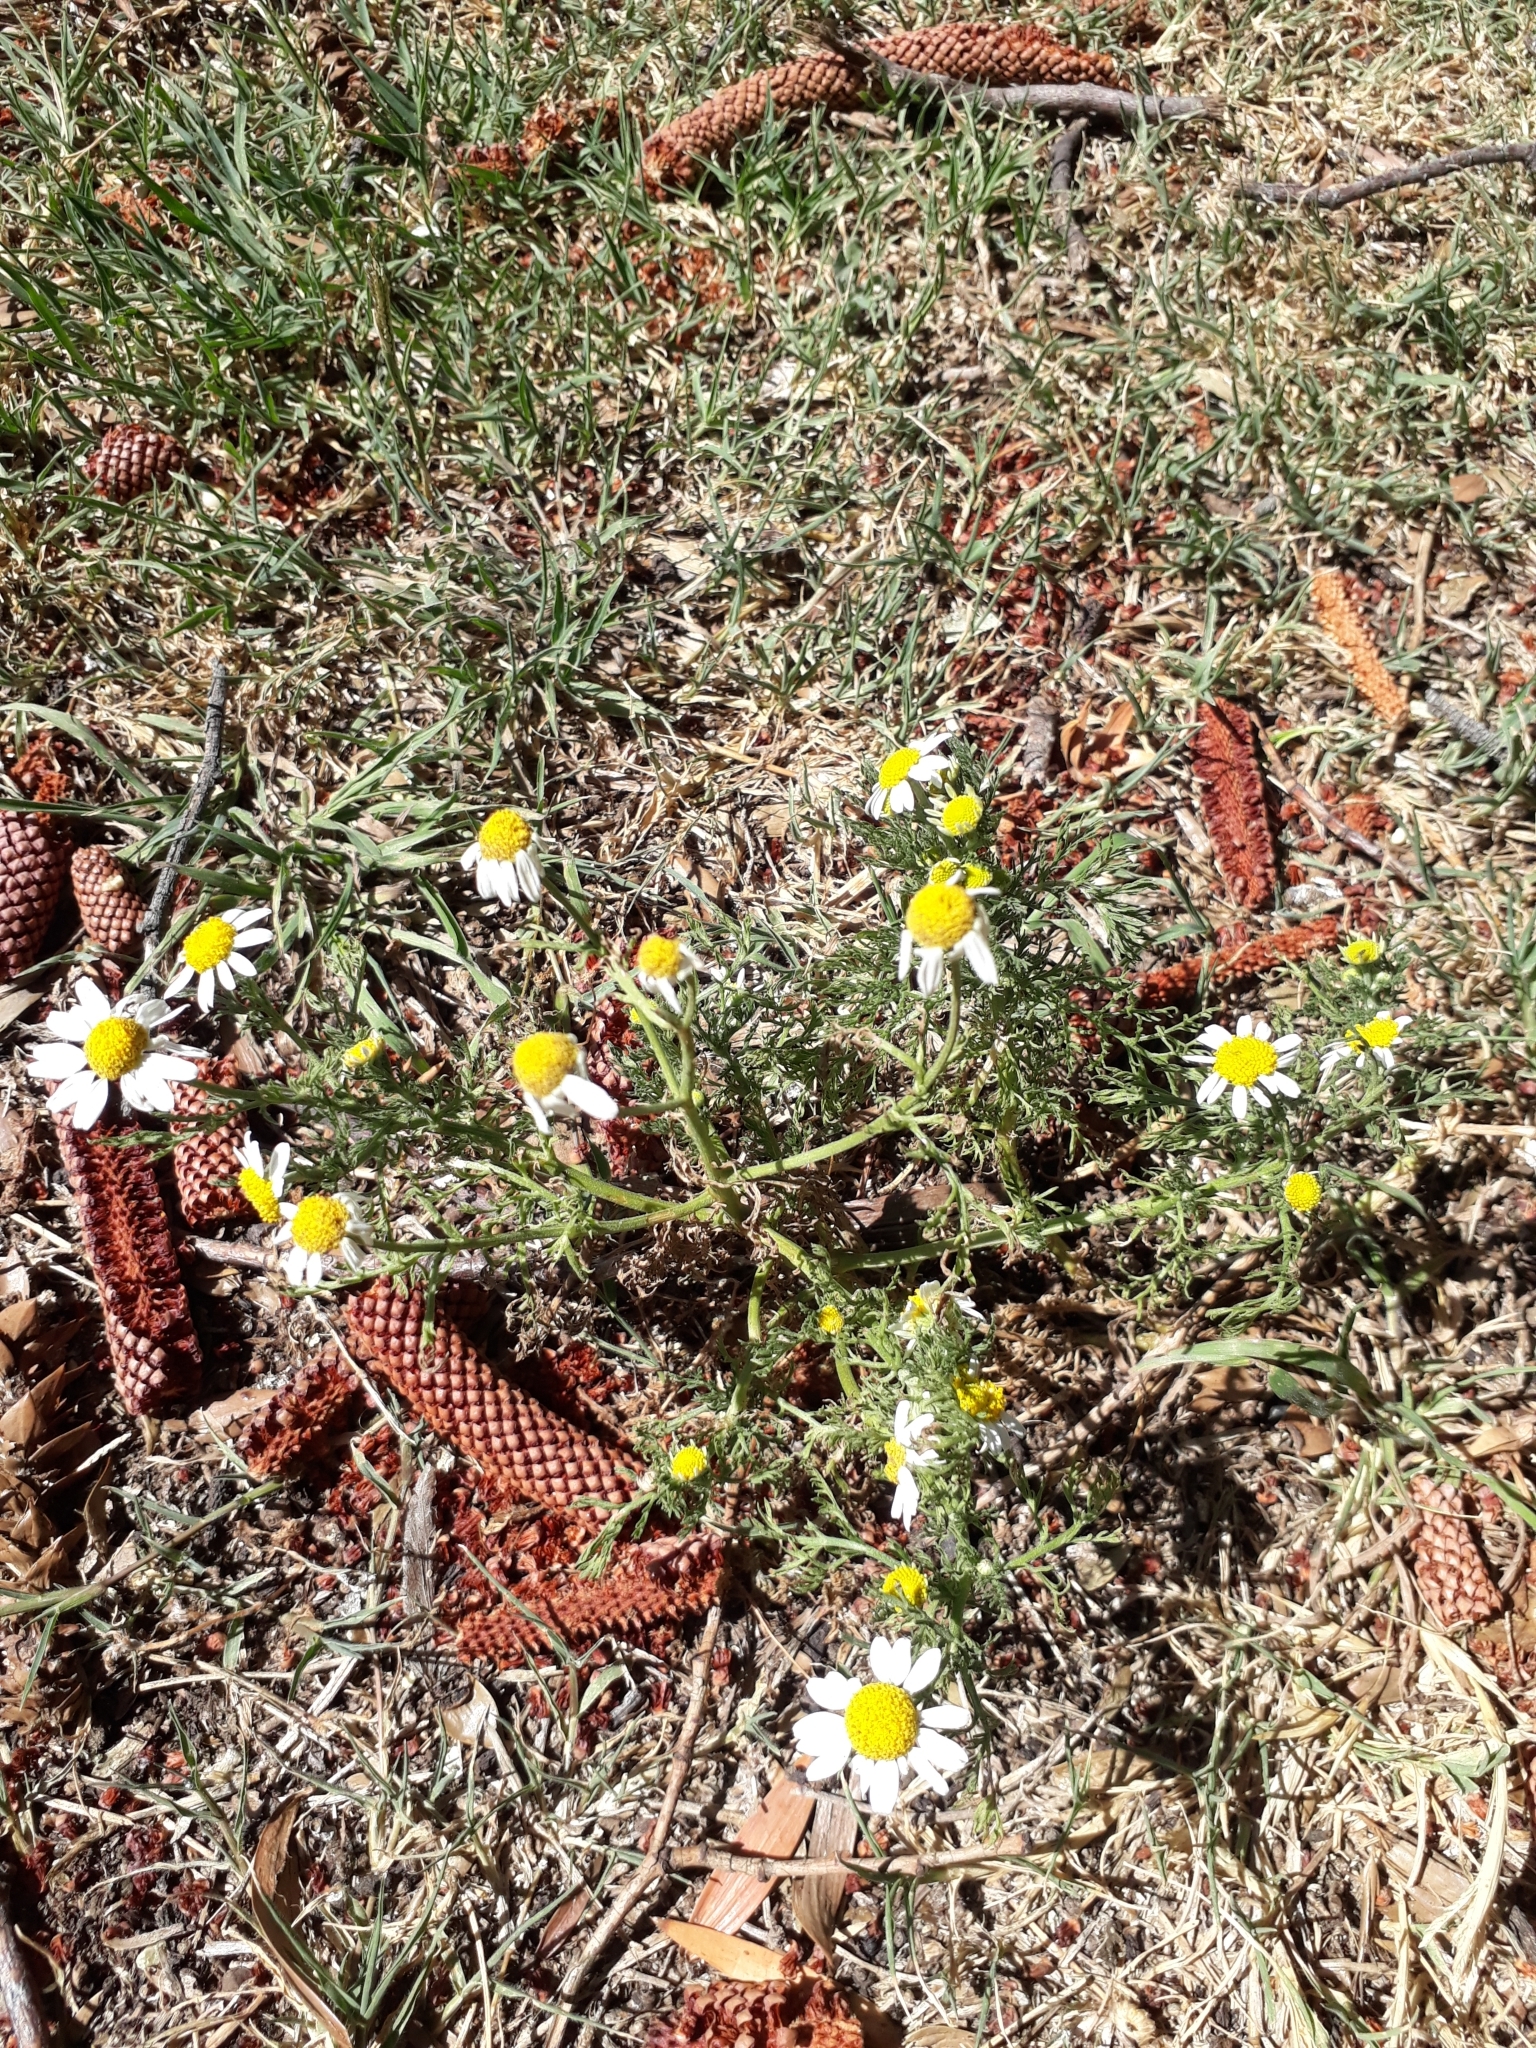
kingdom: Plantae
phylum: Tracheophyta
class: Magnoliopsida
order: Asterales
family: Asteraceae
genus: Matricaria
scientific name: Matricaria chamomilla
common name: Scented mayweed
